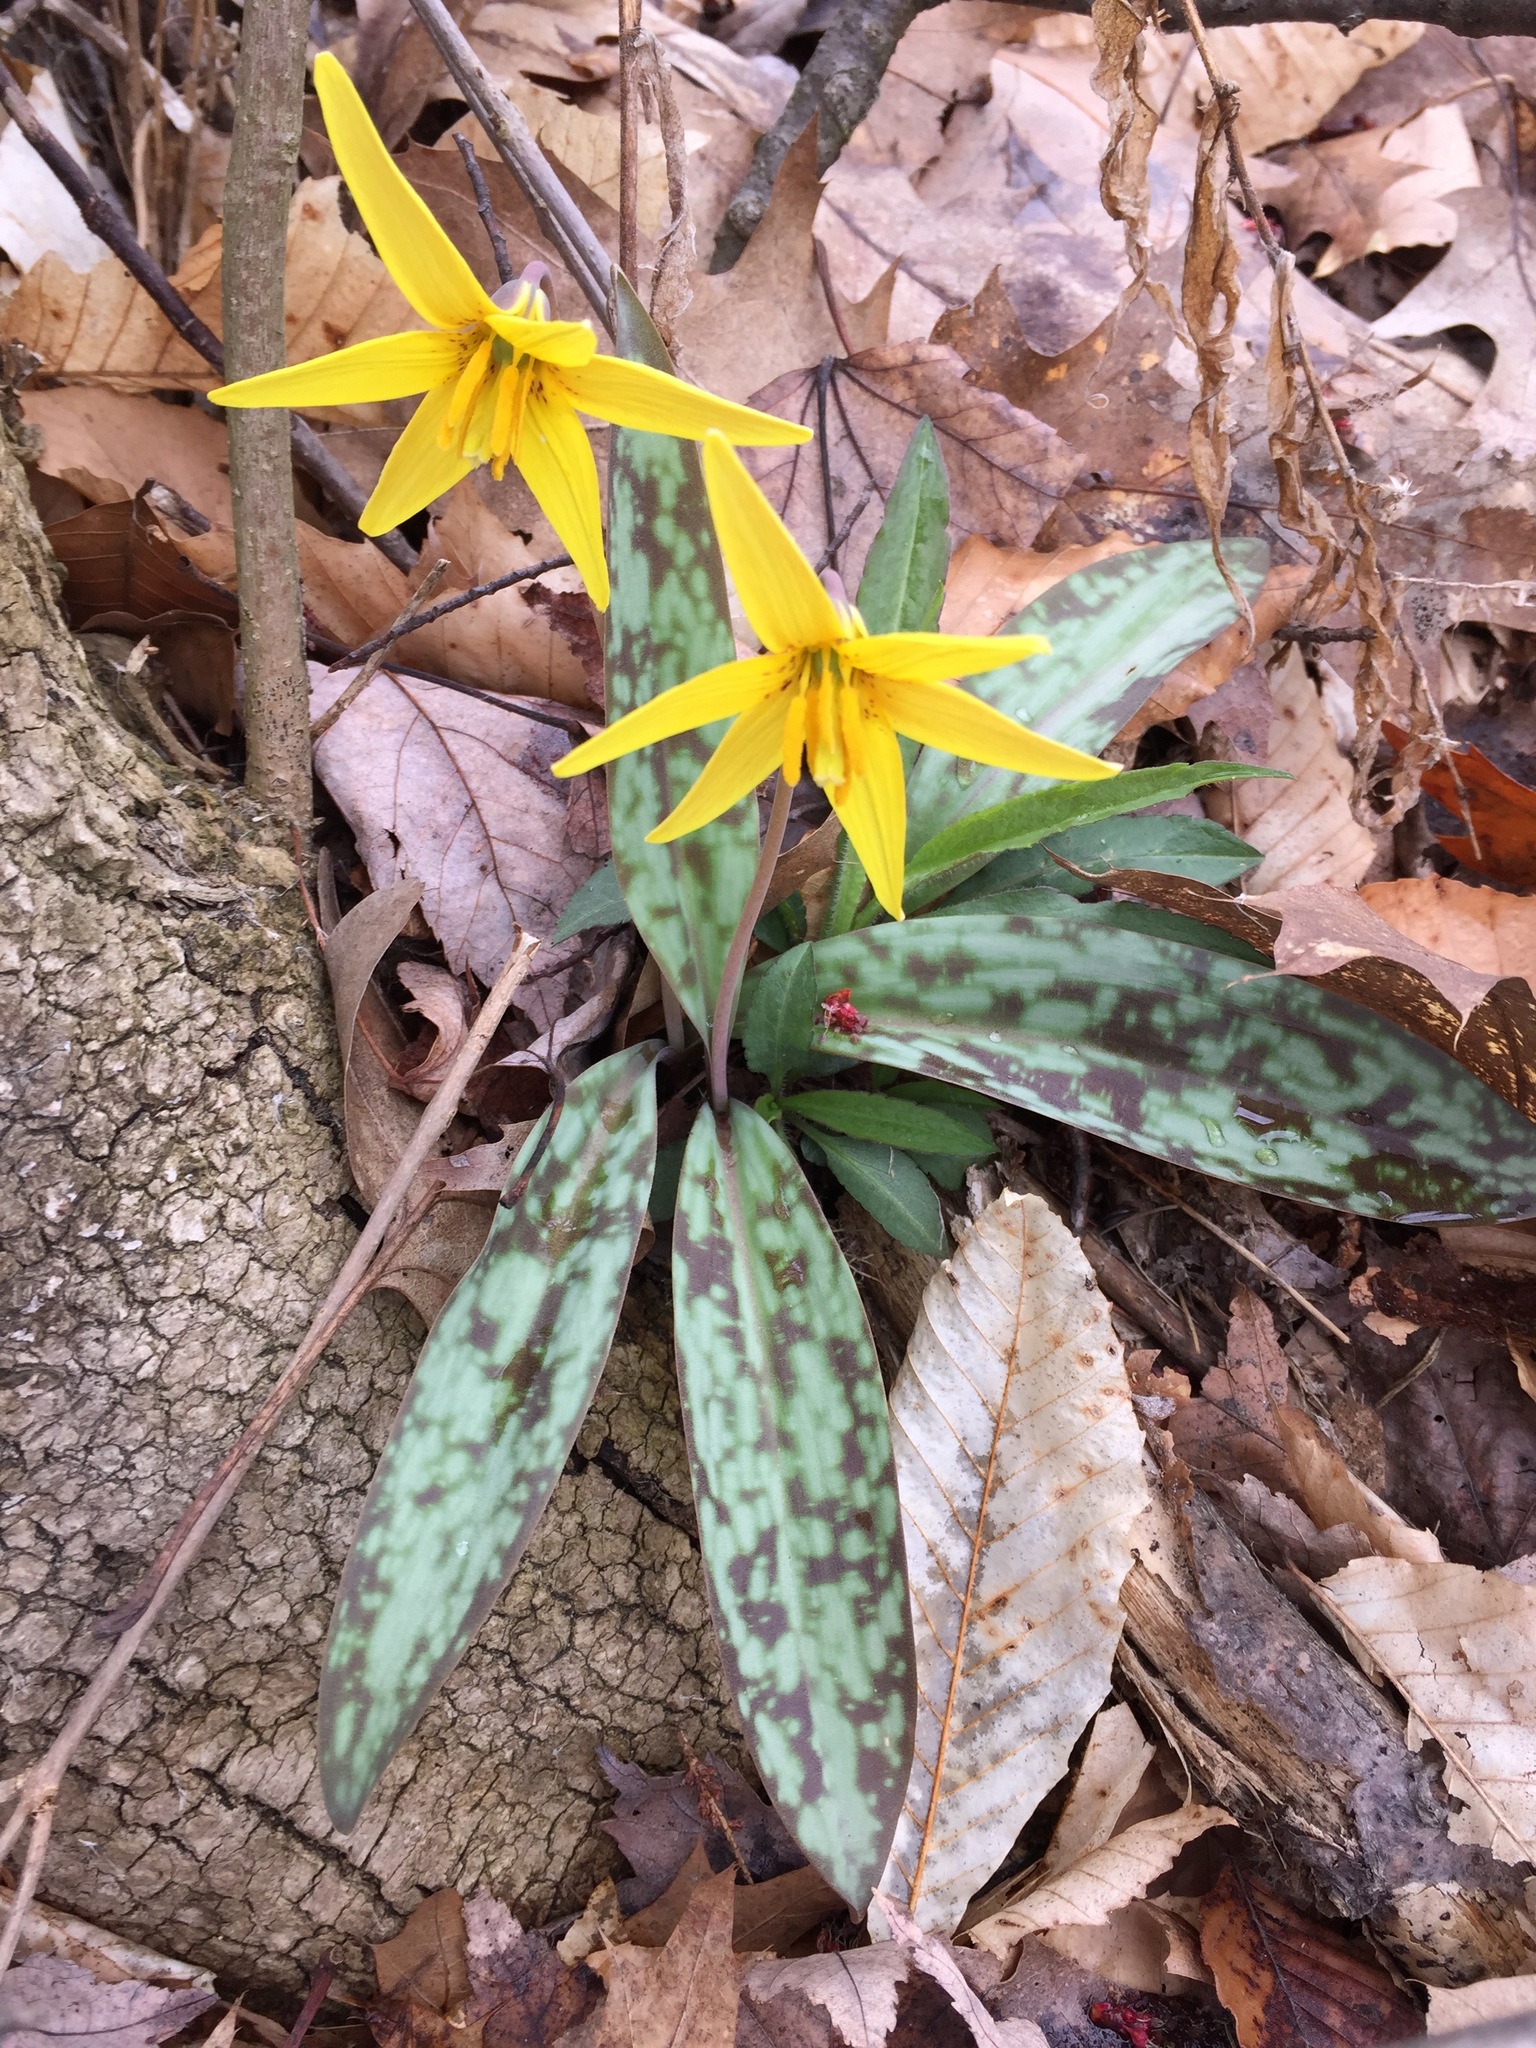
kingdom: Plantae
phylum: Tracheophyta
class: Liliopsida
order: Liliales
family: Liliaceae
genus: Erythronium
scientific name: Erythronium americanum
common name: Yellow adder's-tongue
